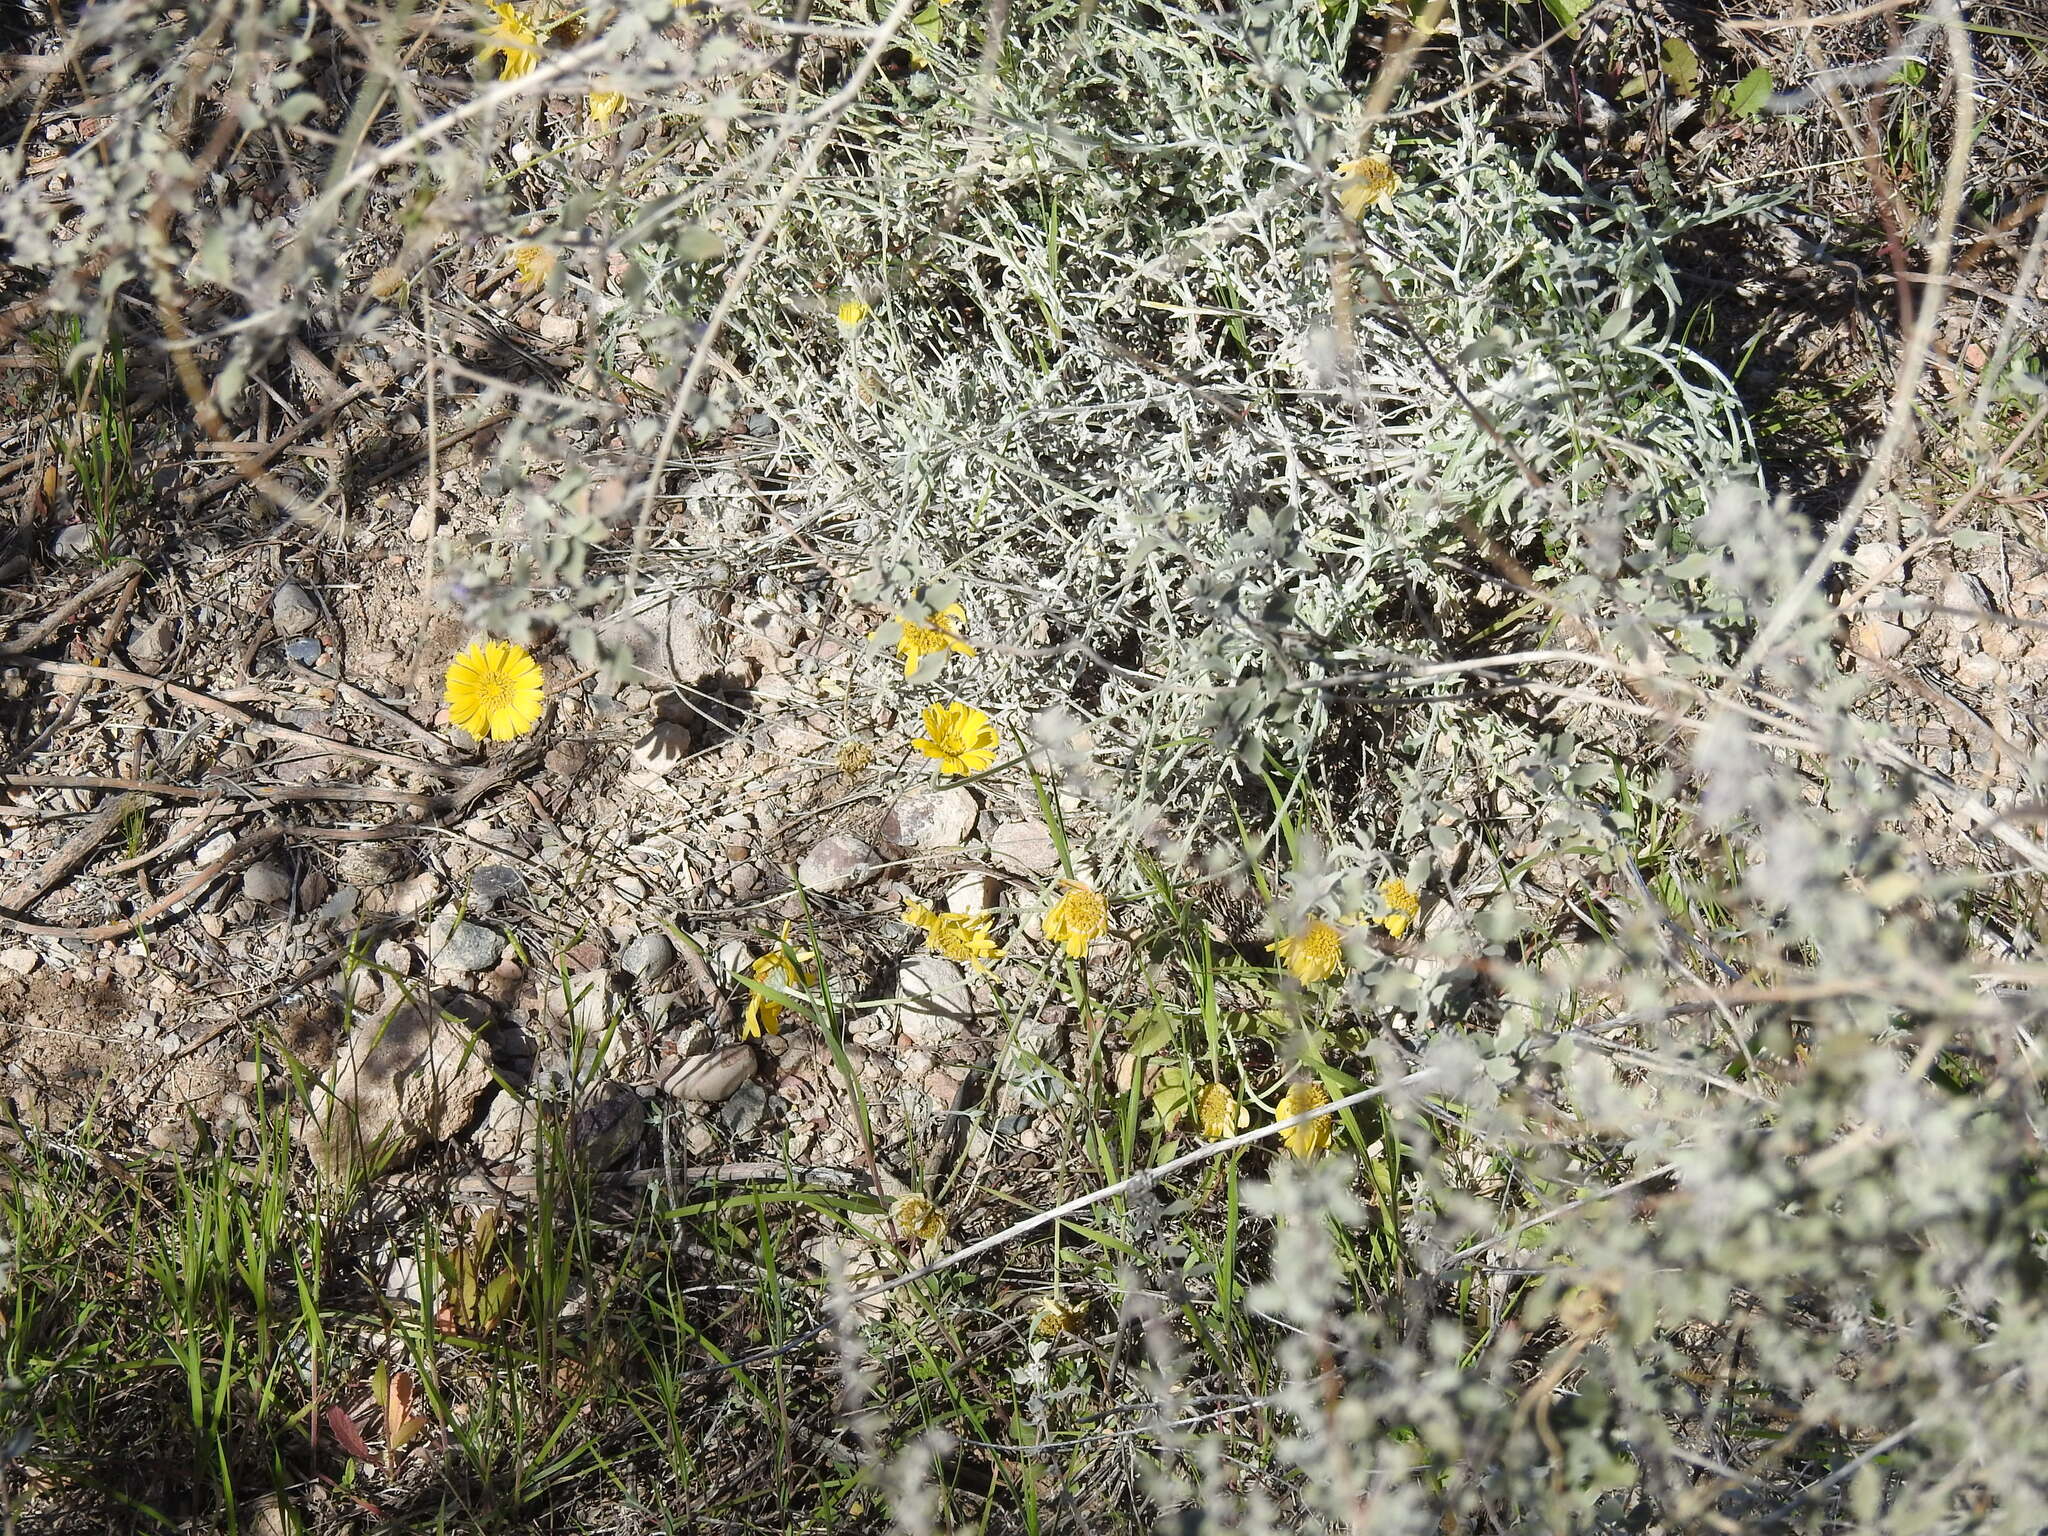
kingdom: Plantae
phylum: Tracheophyta
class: Magnoliopsida
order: Asterales
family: Asteraceae
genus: Baileya
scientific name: Baileya multiradiata
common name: Desert-marigold
